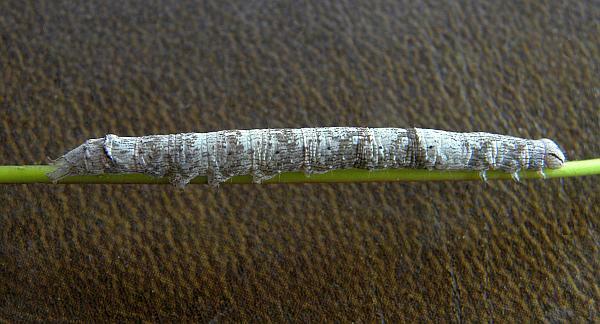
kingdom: Animalia
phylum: Arthropoda
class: Insecta
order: Lepidoptera
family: Erebidae
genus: Parallelia
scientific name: Parallelia bistriaris
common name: Maple looper moth
